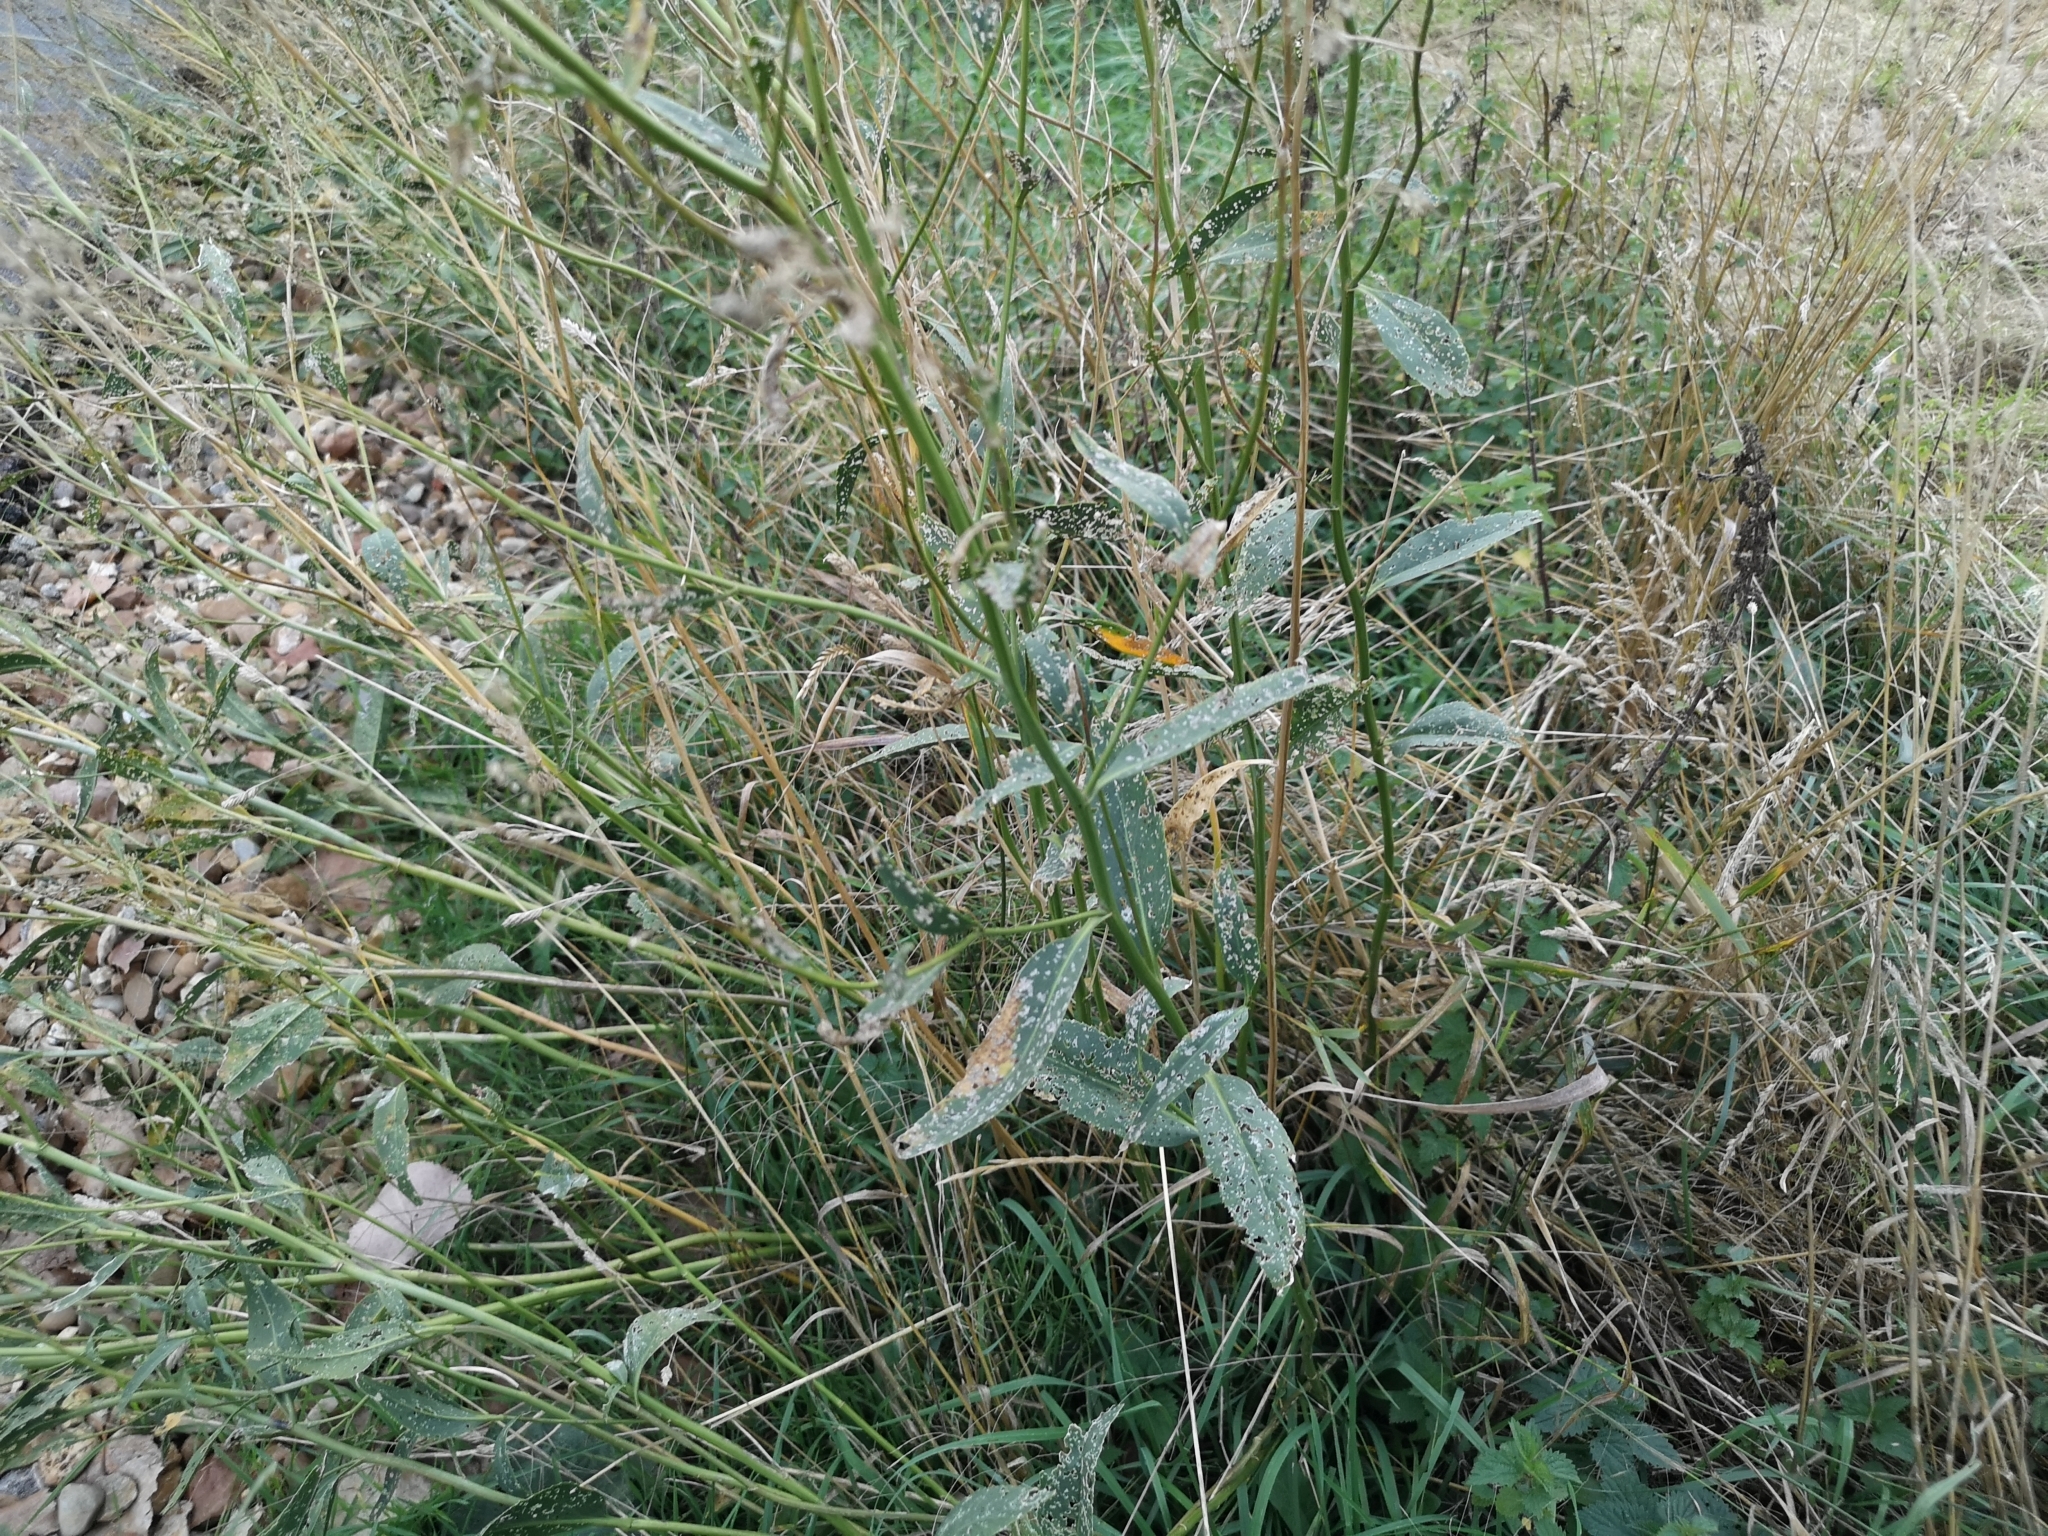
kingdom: Plantae
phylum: Tracheophyta
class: Magnoliopsida
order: Brassicales
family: Brassicaceae
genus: Lepidium
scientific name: Lepidium latifolium
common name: Dittander
